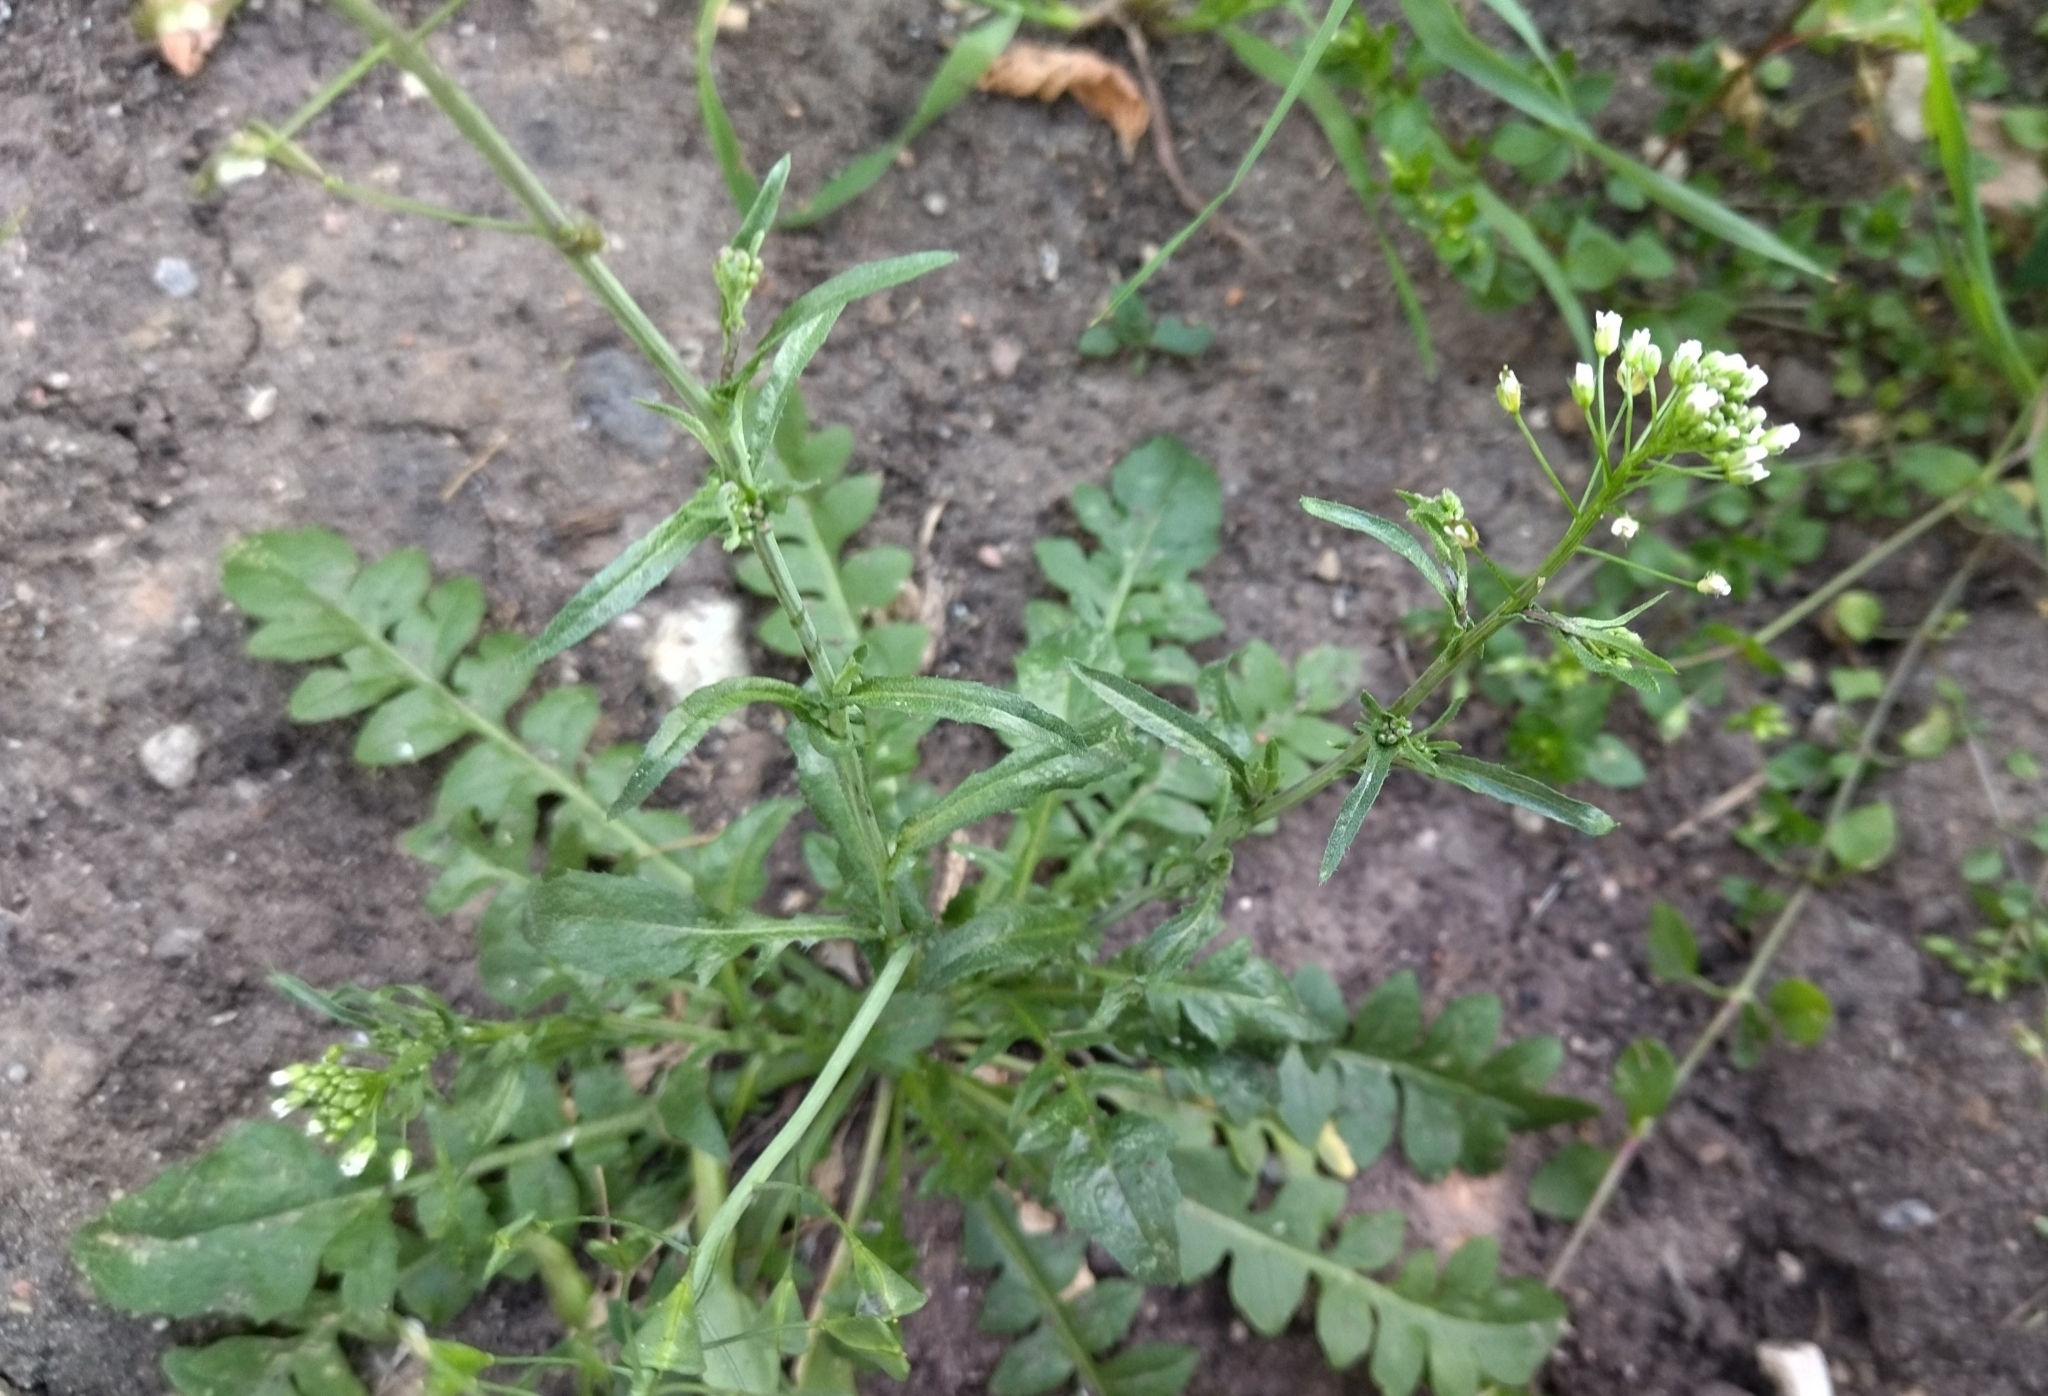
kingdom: Plantae
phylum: Tracheophyta
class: Magnoliopsida
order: Brassicales
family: Brassicaceae
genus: Capsella
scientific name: Capsella bursa-pastoris
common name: Shepherd's purse
